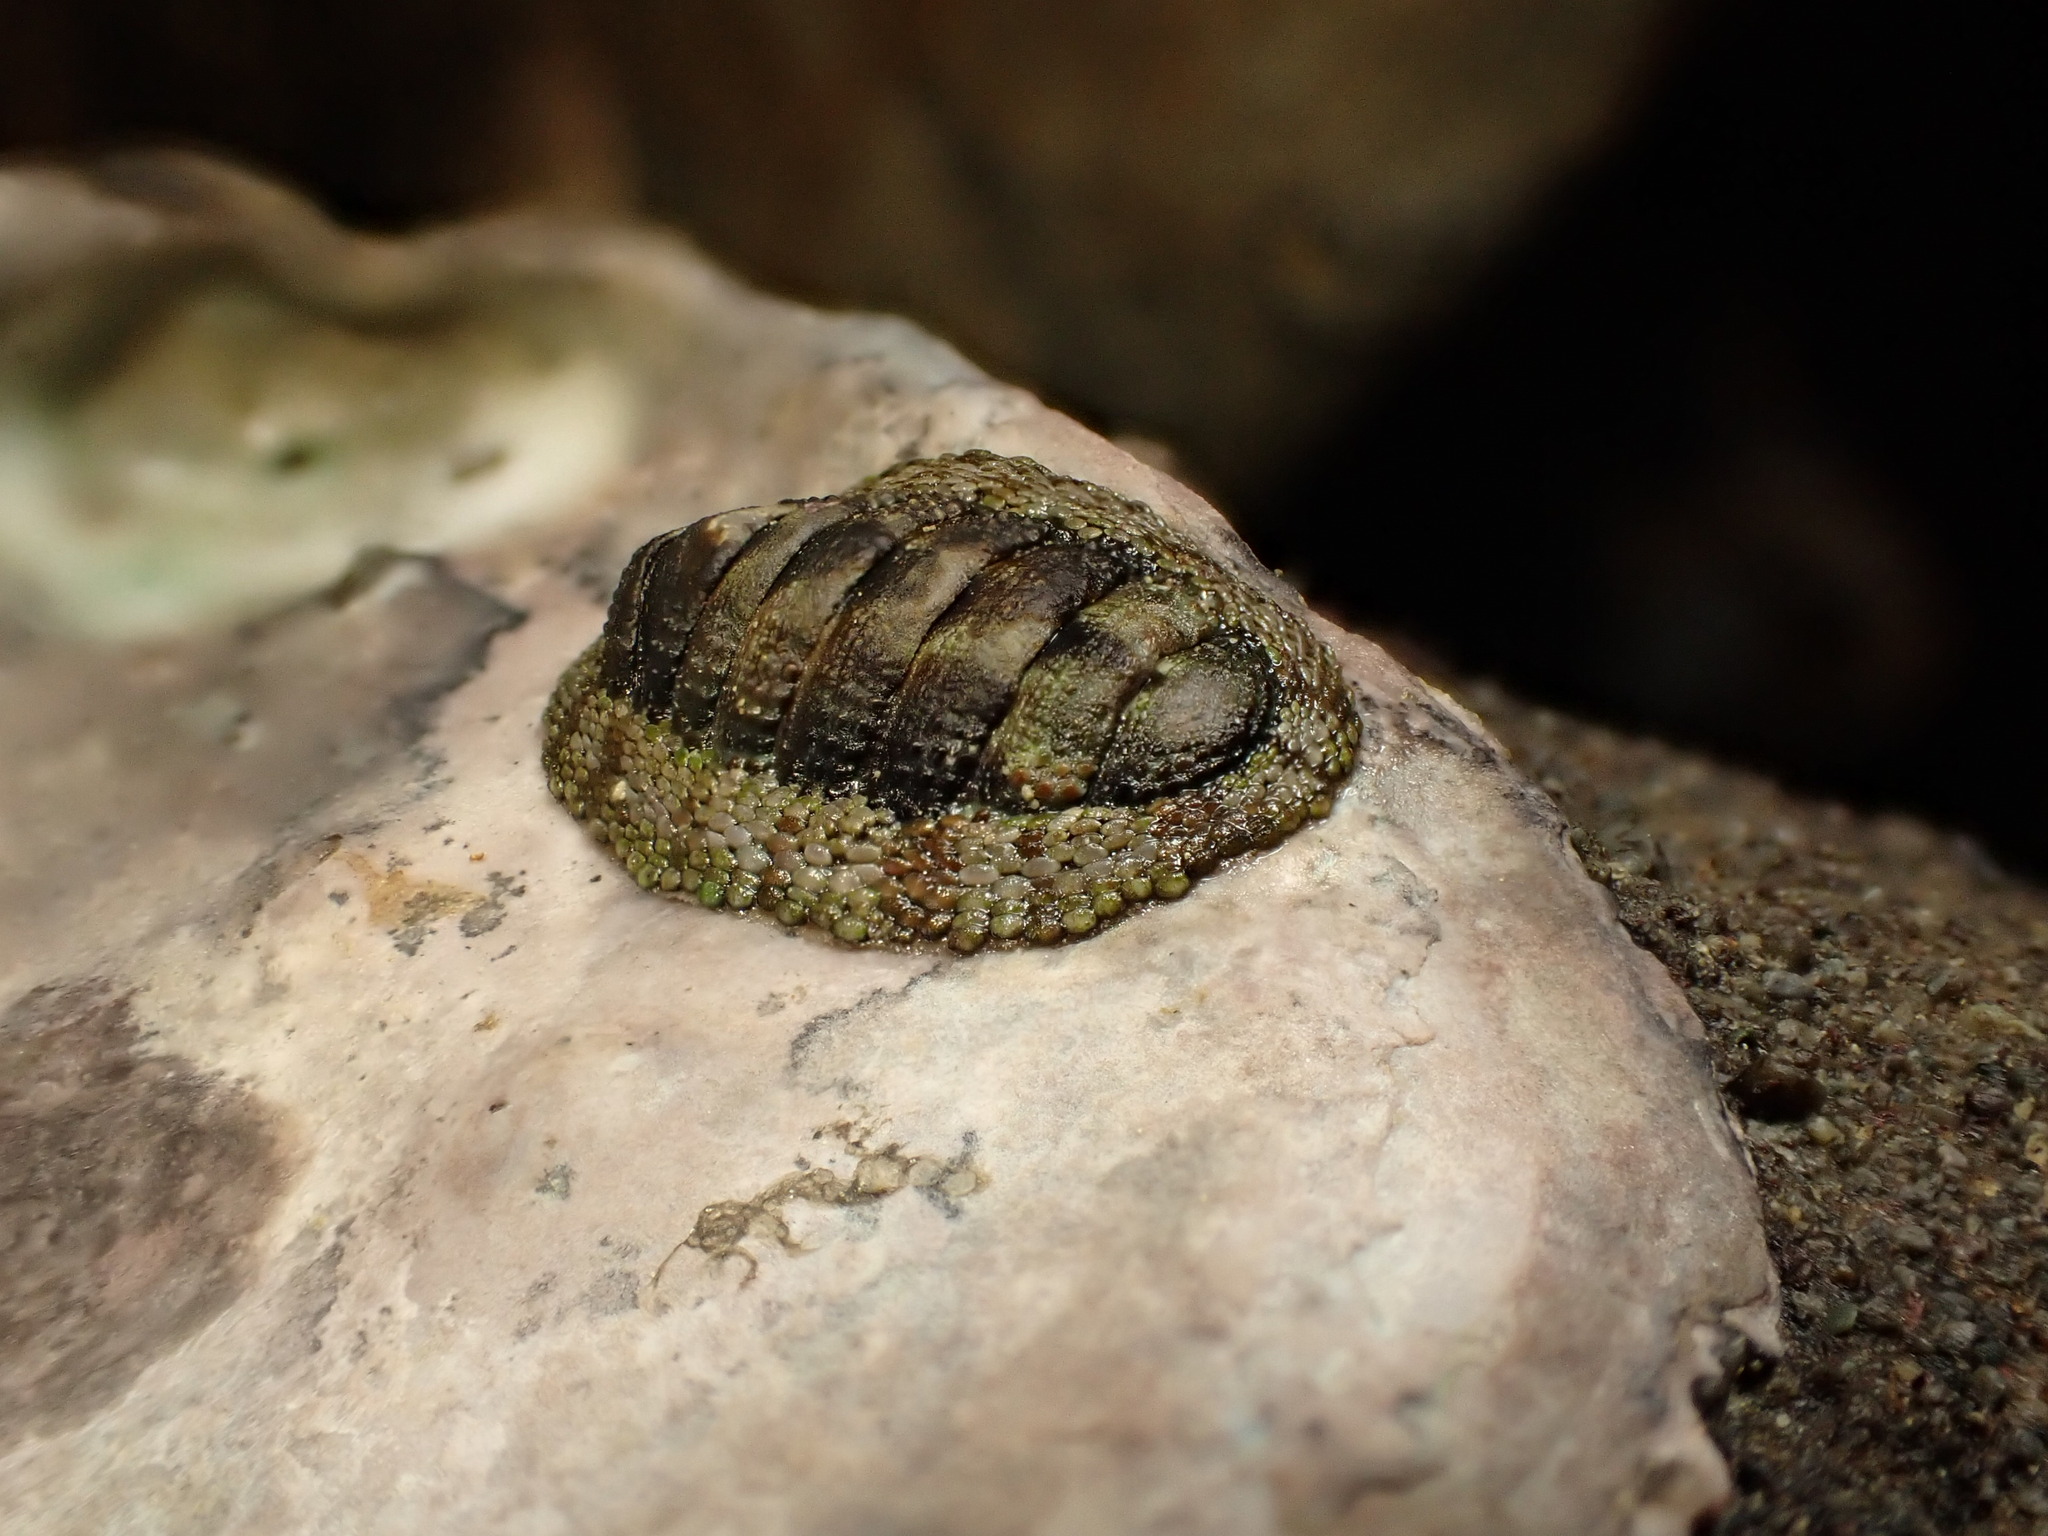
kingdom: Animalia
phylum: Mollusca
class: Polyplacophora
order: Chitonida
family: Chitonidae
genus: Sypharochiton
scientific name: Sypharochiton pelliserpentis
